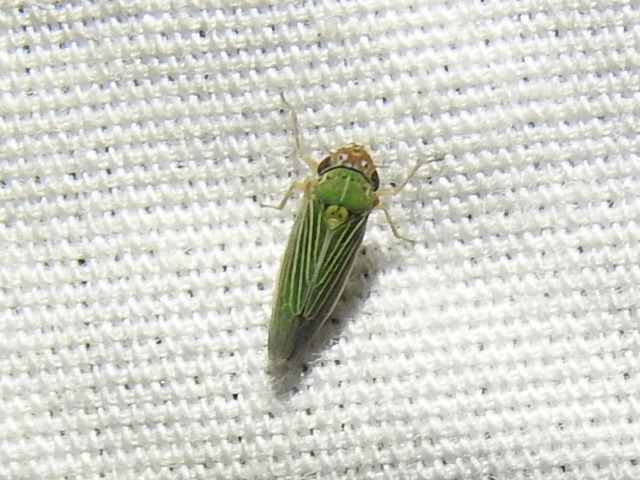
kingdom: Animalia
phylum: Arthropoda
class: Insecta
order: Hemiptera
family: Cicadellidae
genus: Xyphon
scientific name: Xyphon reticulatum
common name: Planthopper
